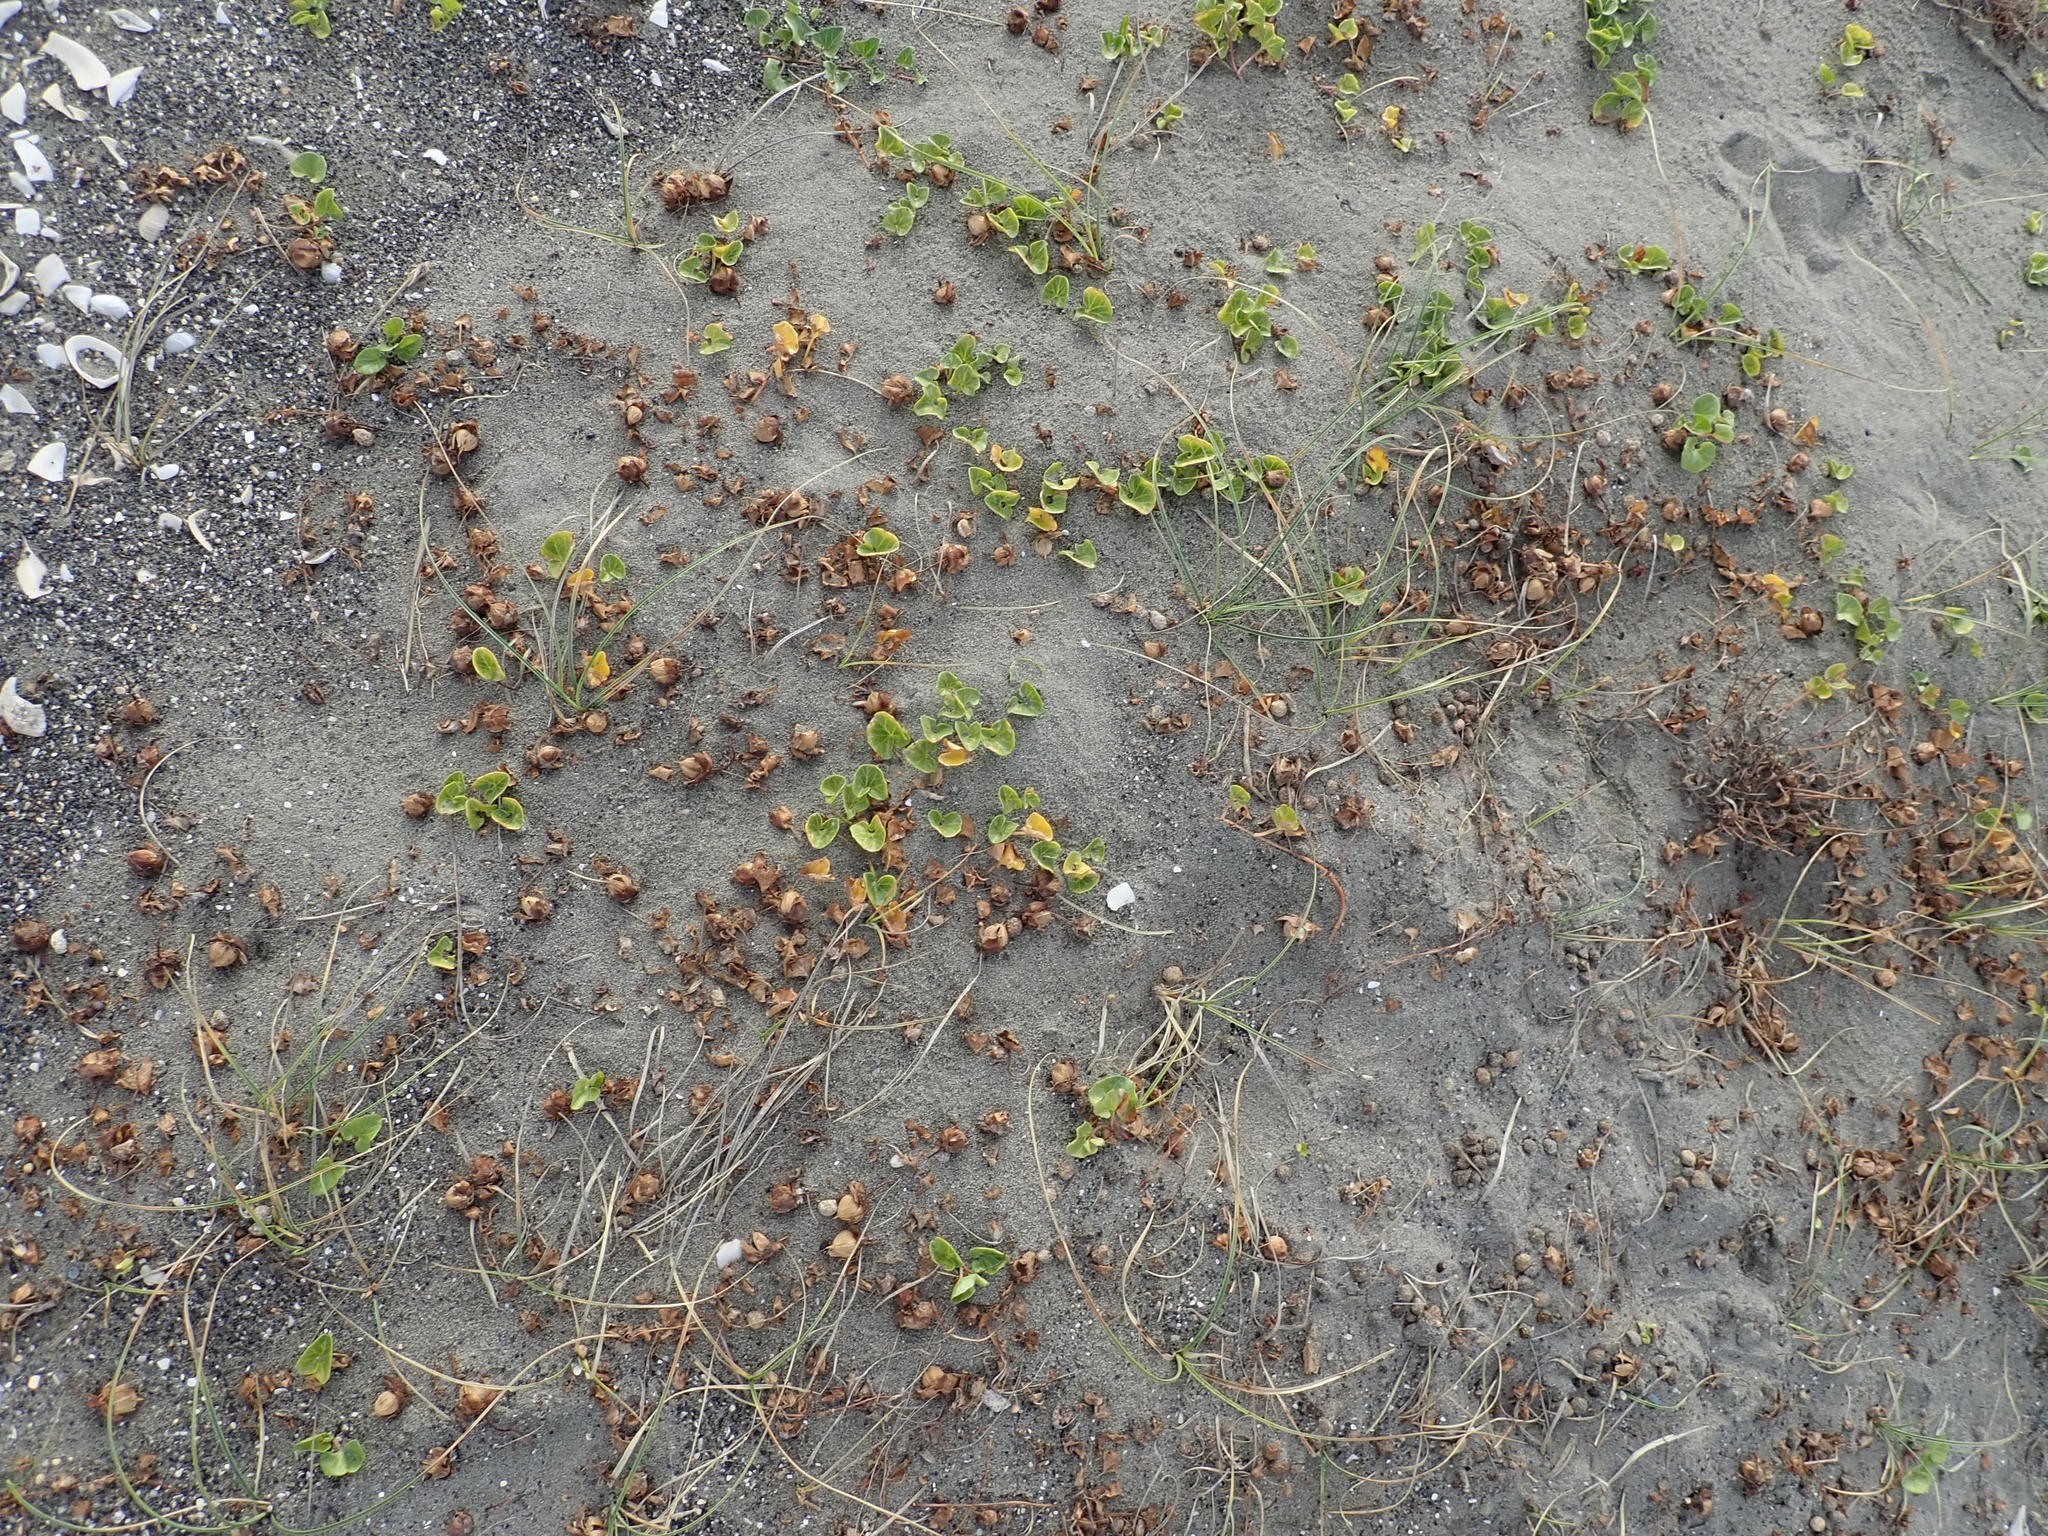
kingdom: Plantae
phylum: Tracheophyta
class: Magnoliopsida
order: Solanales
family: Convolvulaceae
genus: Calystegia
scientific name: Calystegia soldanella
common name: Sea bindweed
